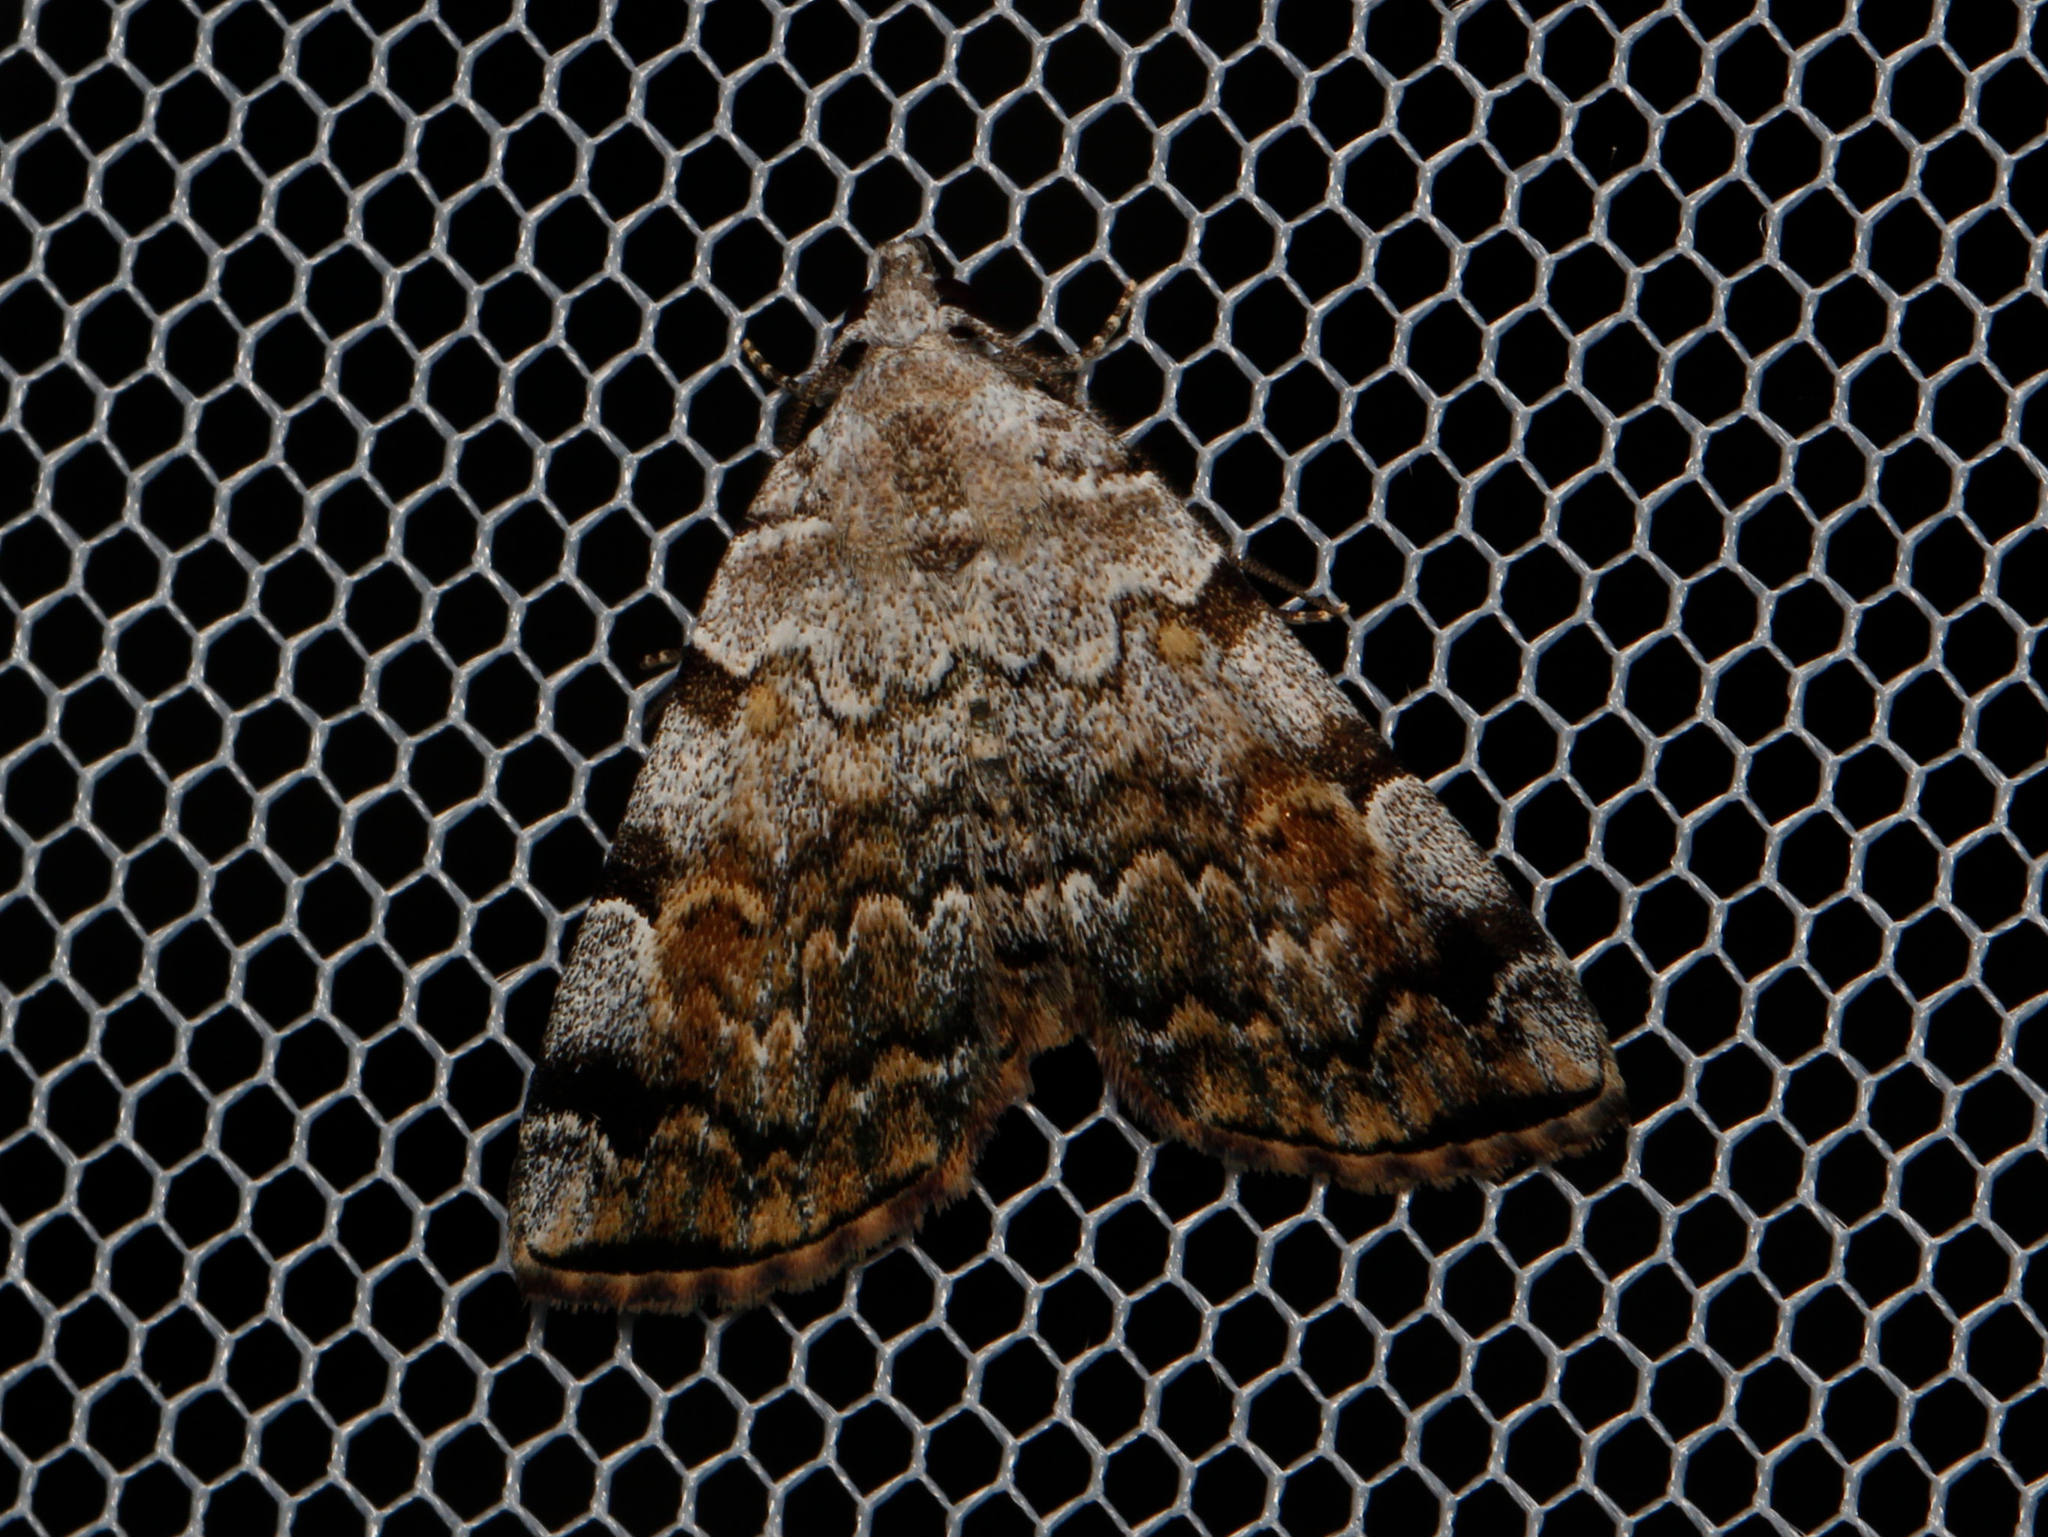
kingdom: Animalia
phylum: Arthropoda
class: Insecta
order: Lepidoptera
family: Erebidae
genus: Idia
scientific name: Idia americalis
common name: American idia moth
